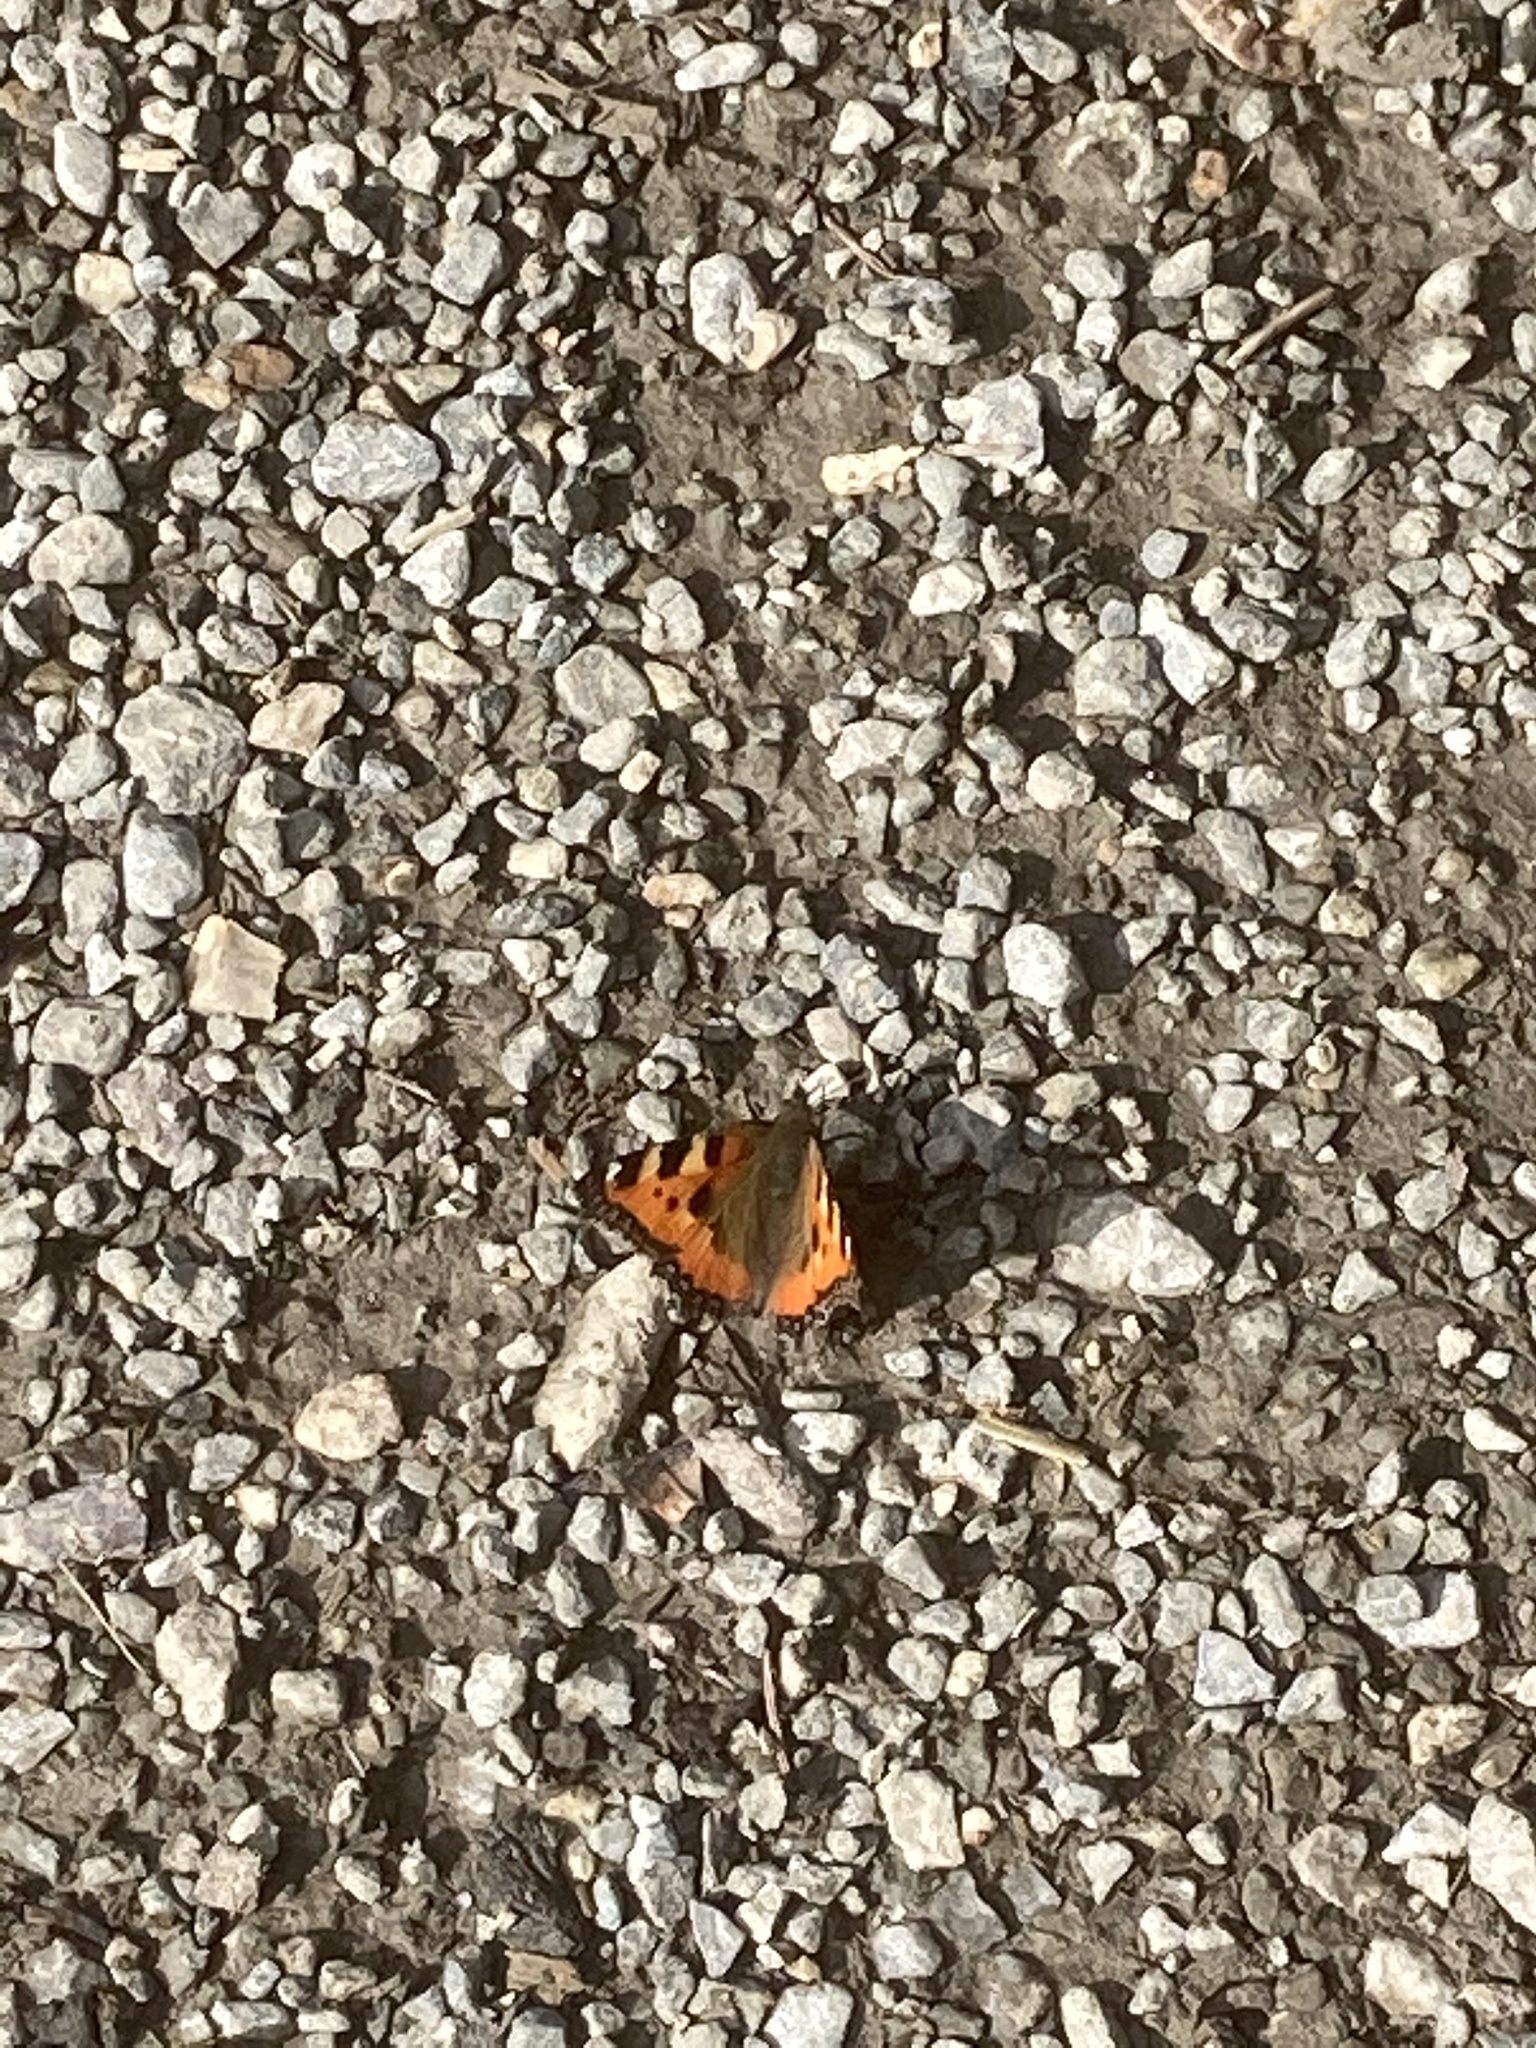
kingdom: Animalia
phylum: Arthropoda
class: Insecta
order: Lepidoptera
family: Nymphalidae
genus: Aglais
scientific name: Aglais urticae
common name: Small tortoiseshell
